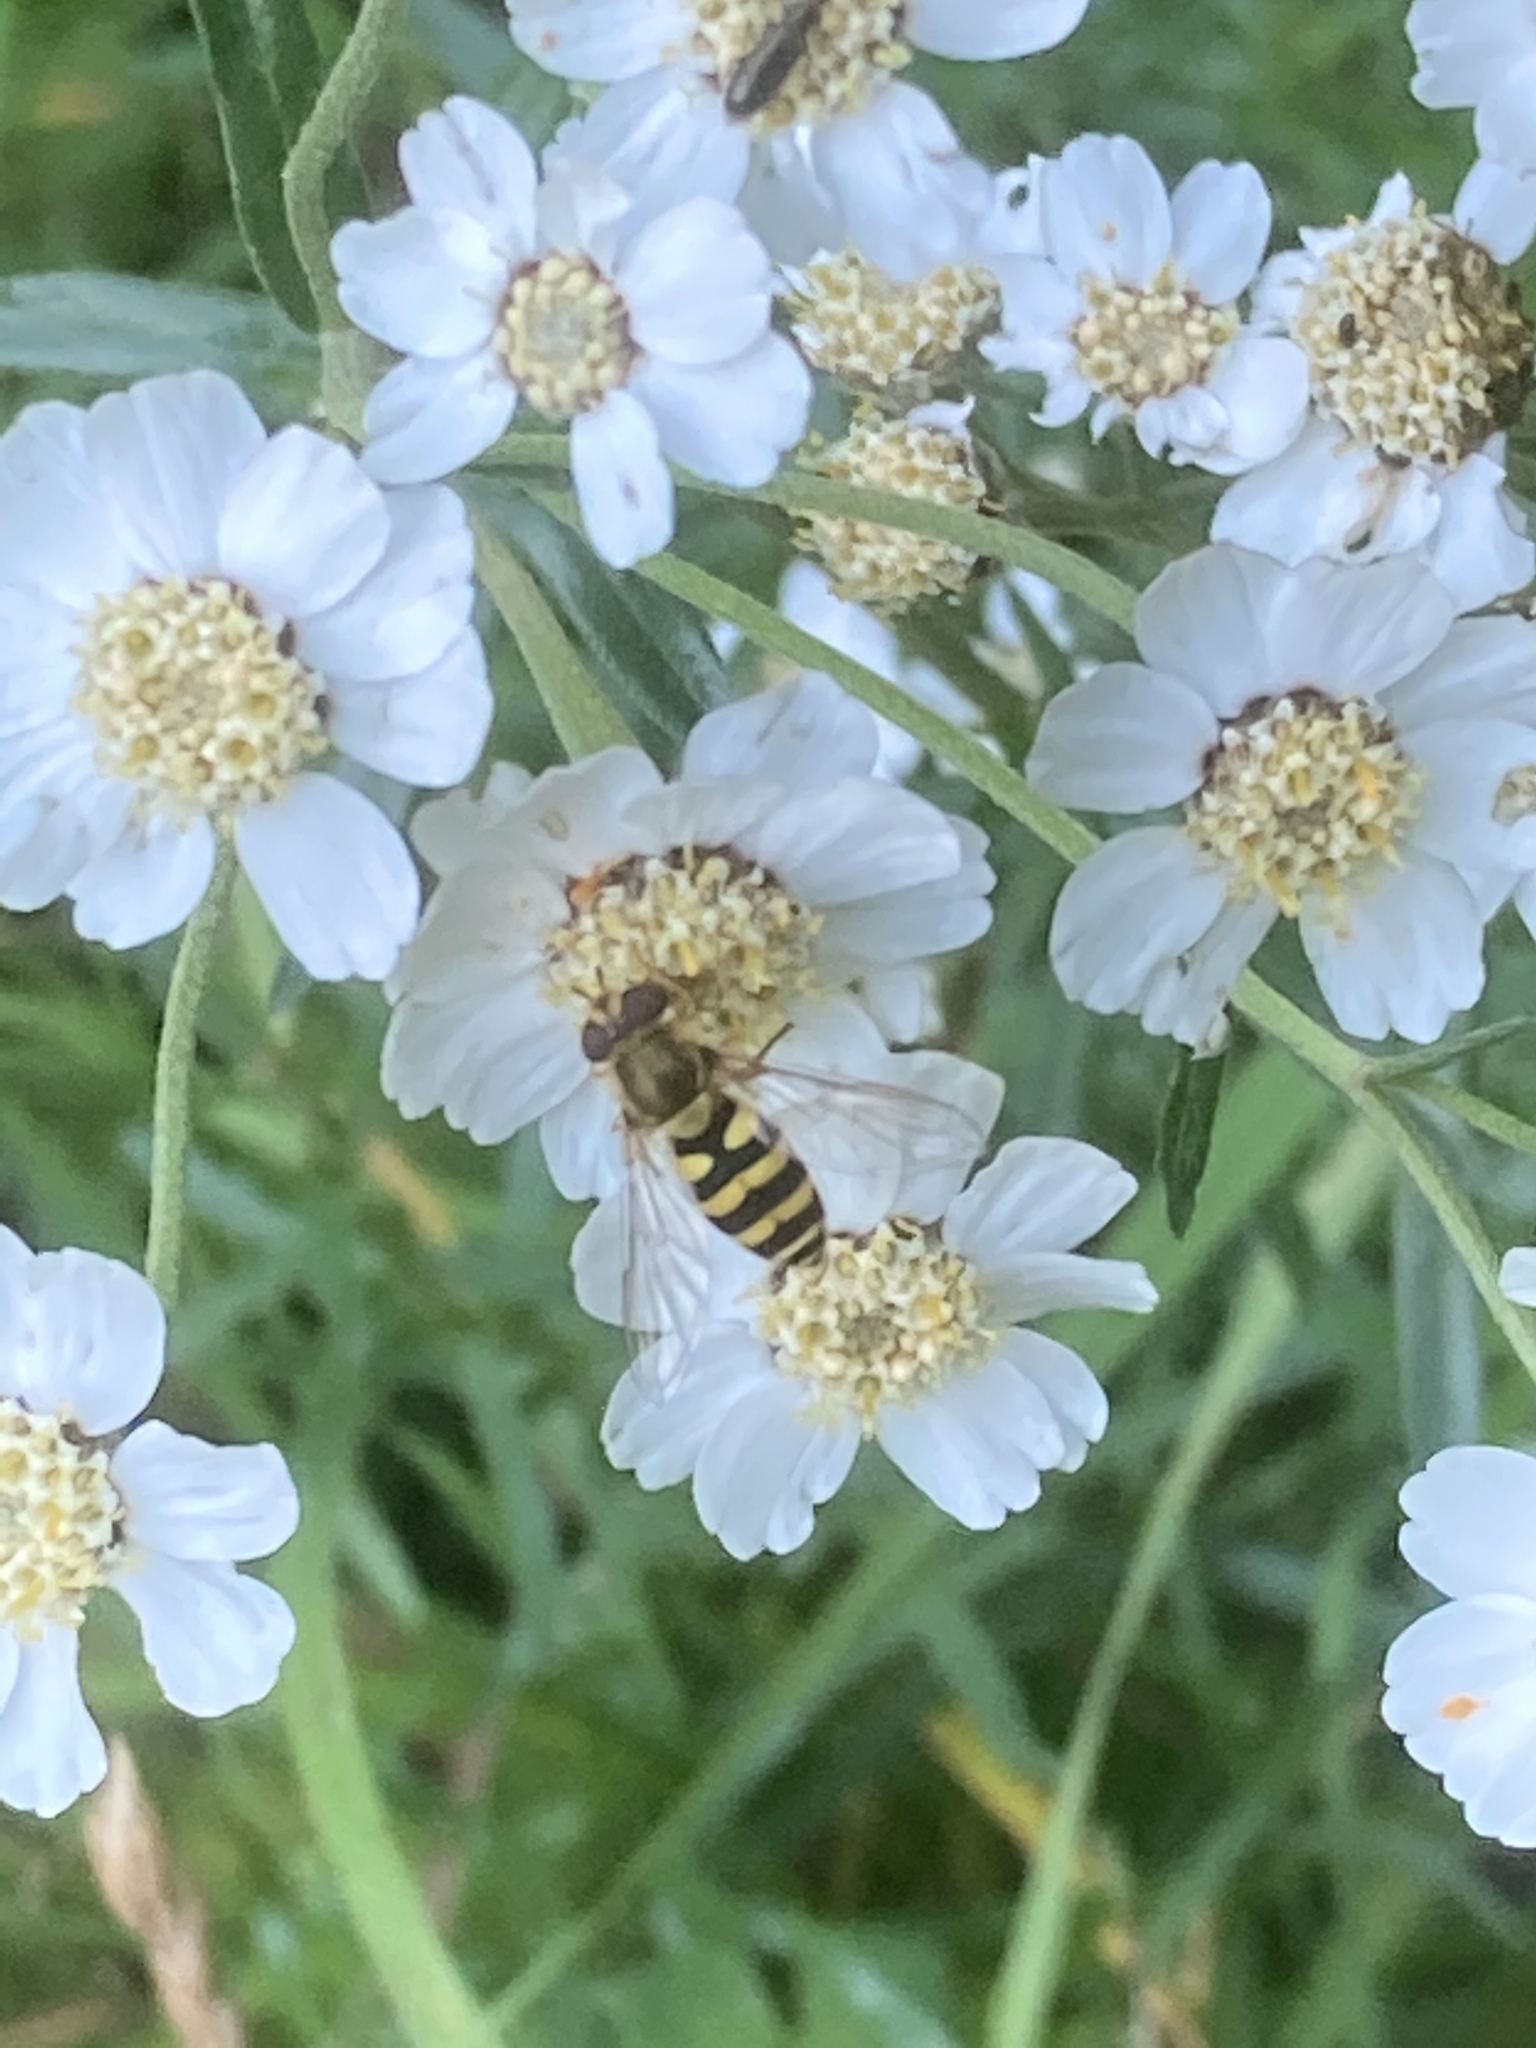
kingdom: Animalia
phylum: Arthropoda
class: Insecta
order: Diptera
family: Syrphidae
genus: Syrphus
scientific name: Syrphus
